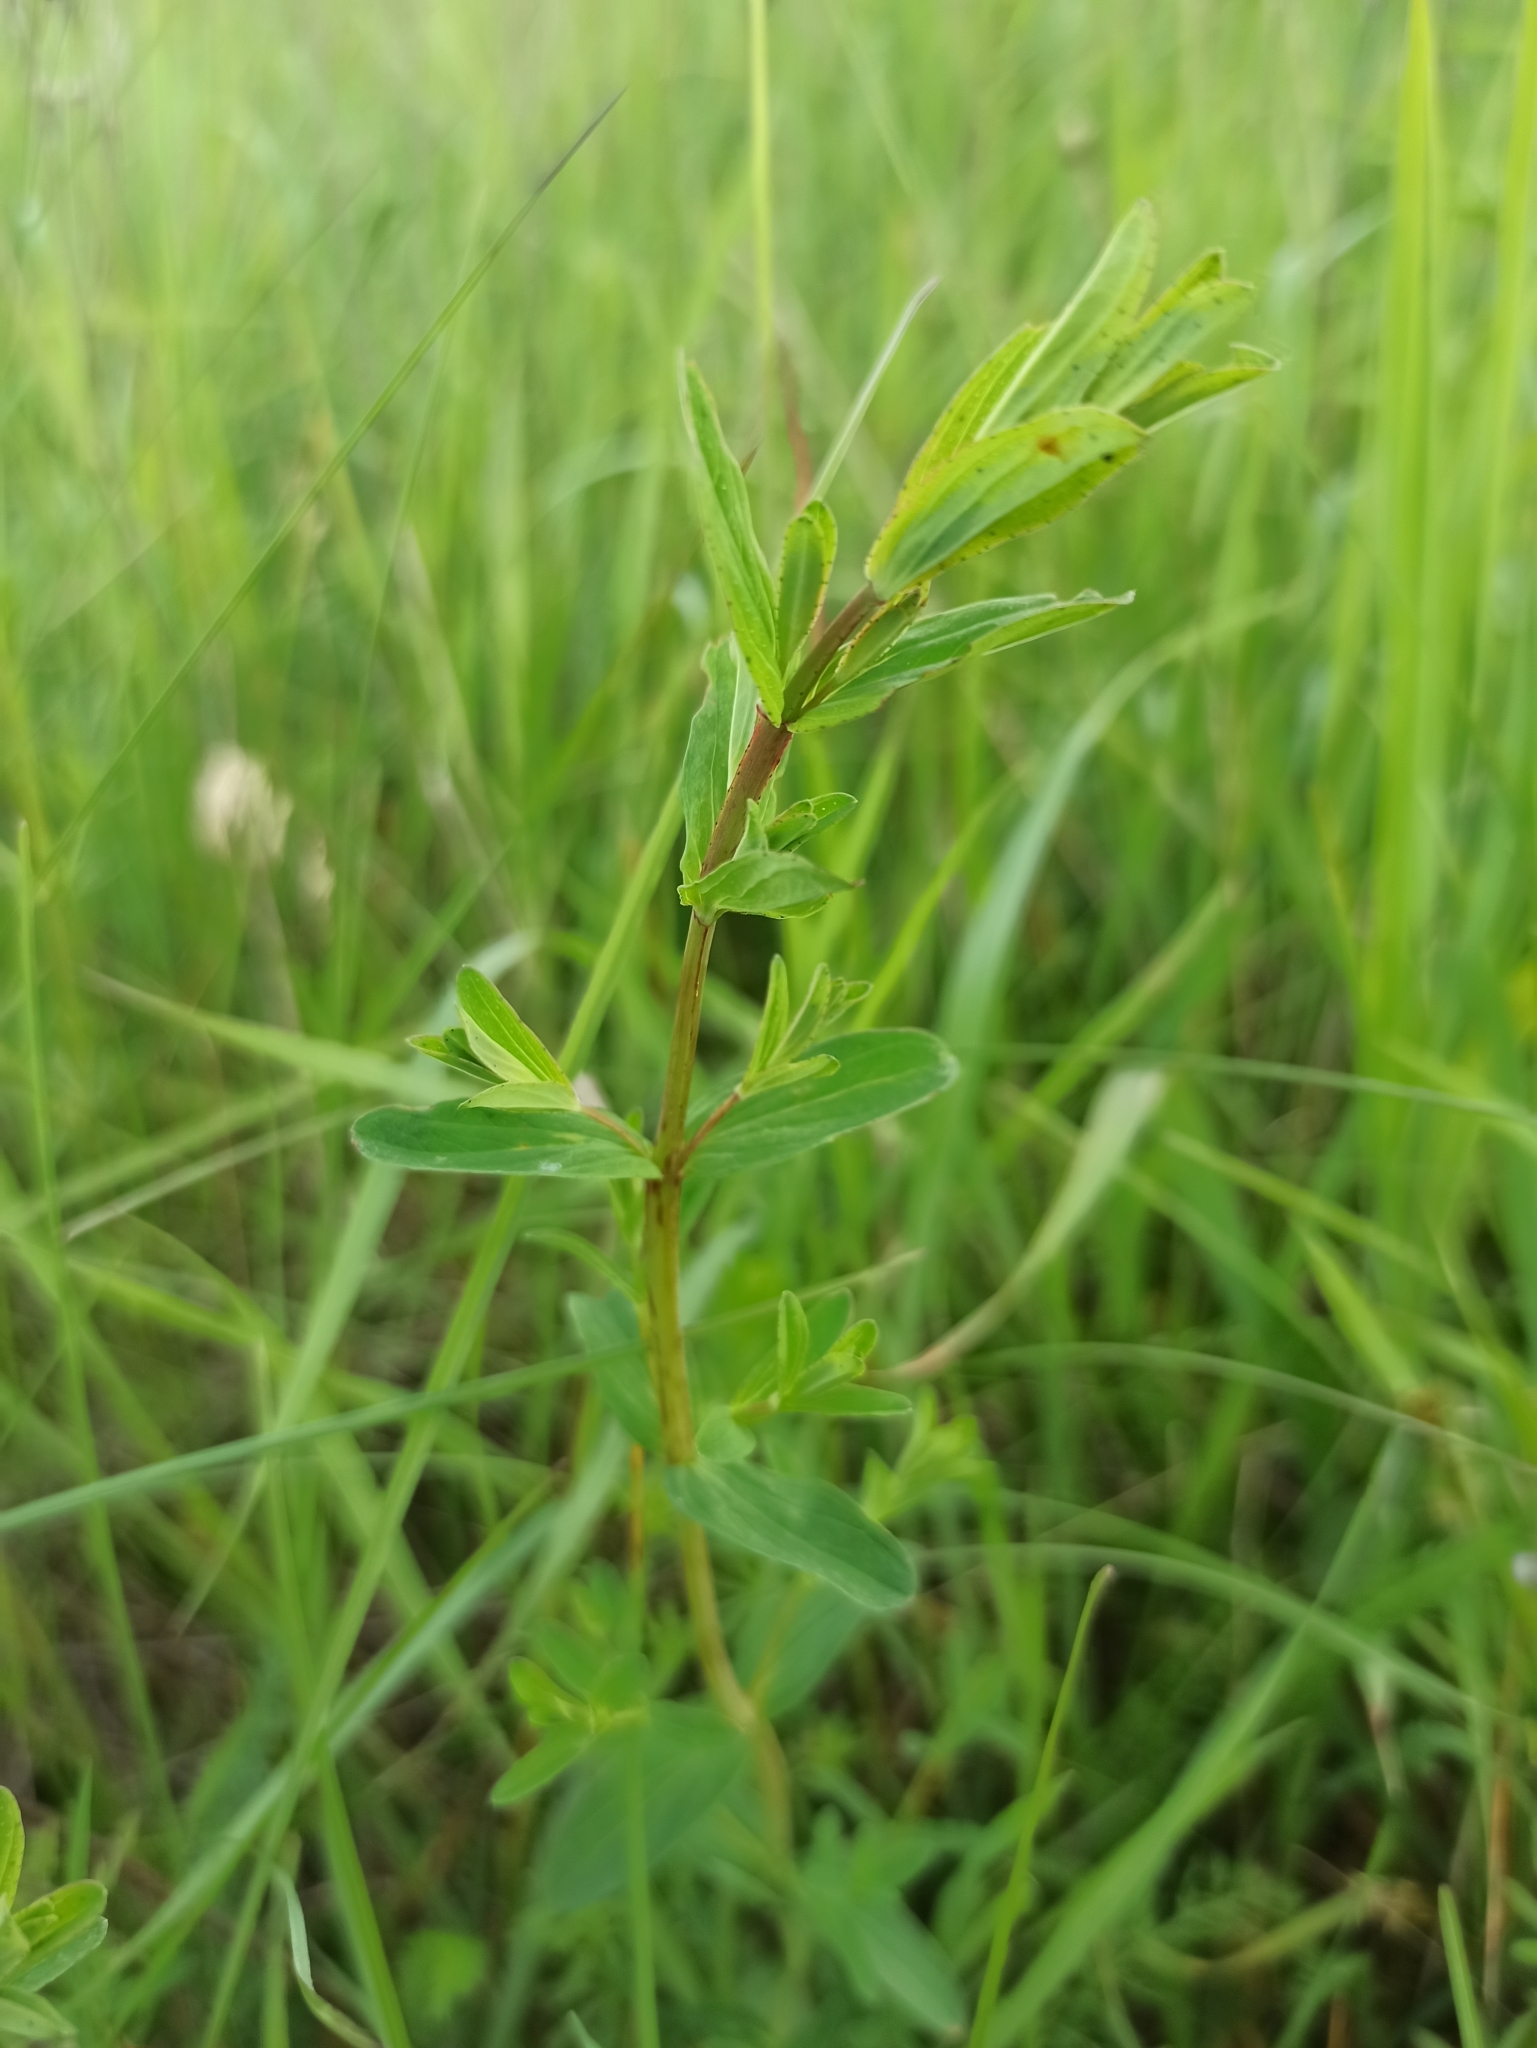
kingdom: Plantae
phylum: Tracheophyta
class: Magnoliopsida
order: Malpighiales
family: Hypericaceae
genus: Hypericum
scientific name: Hypericum perforatum
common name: Common st. johnswort
